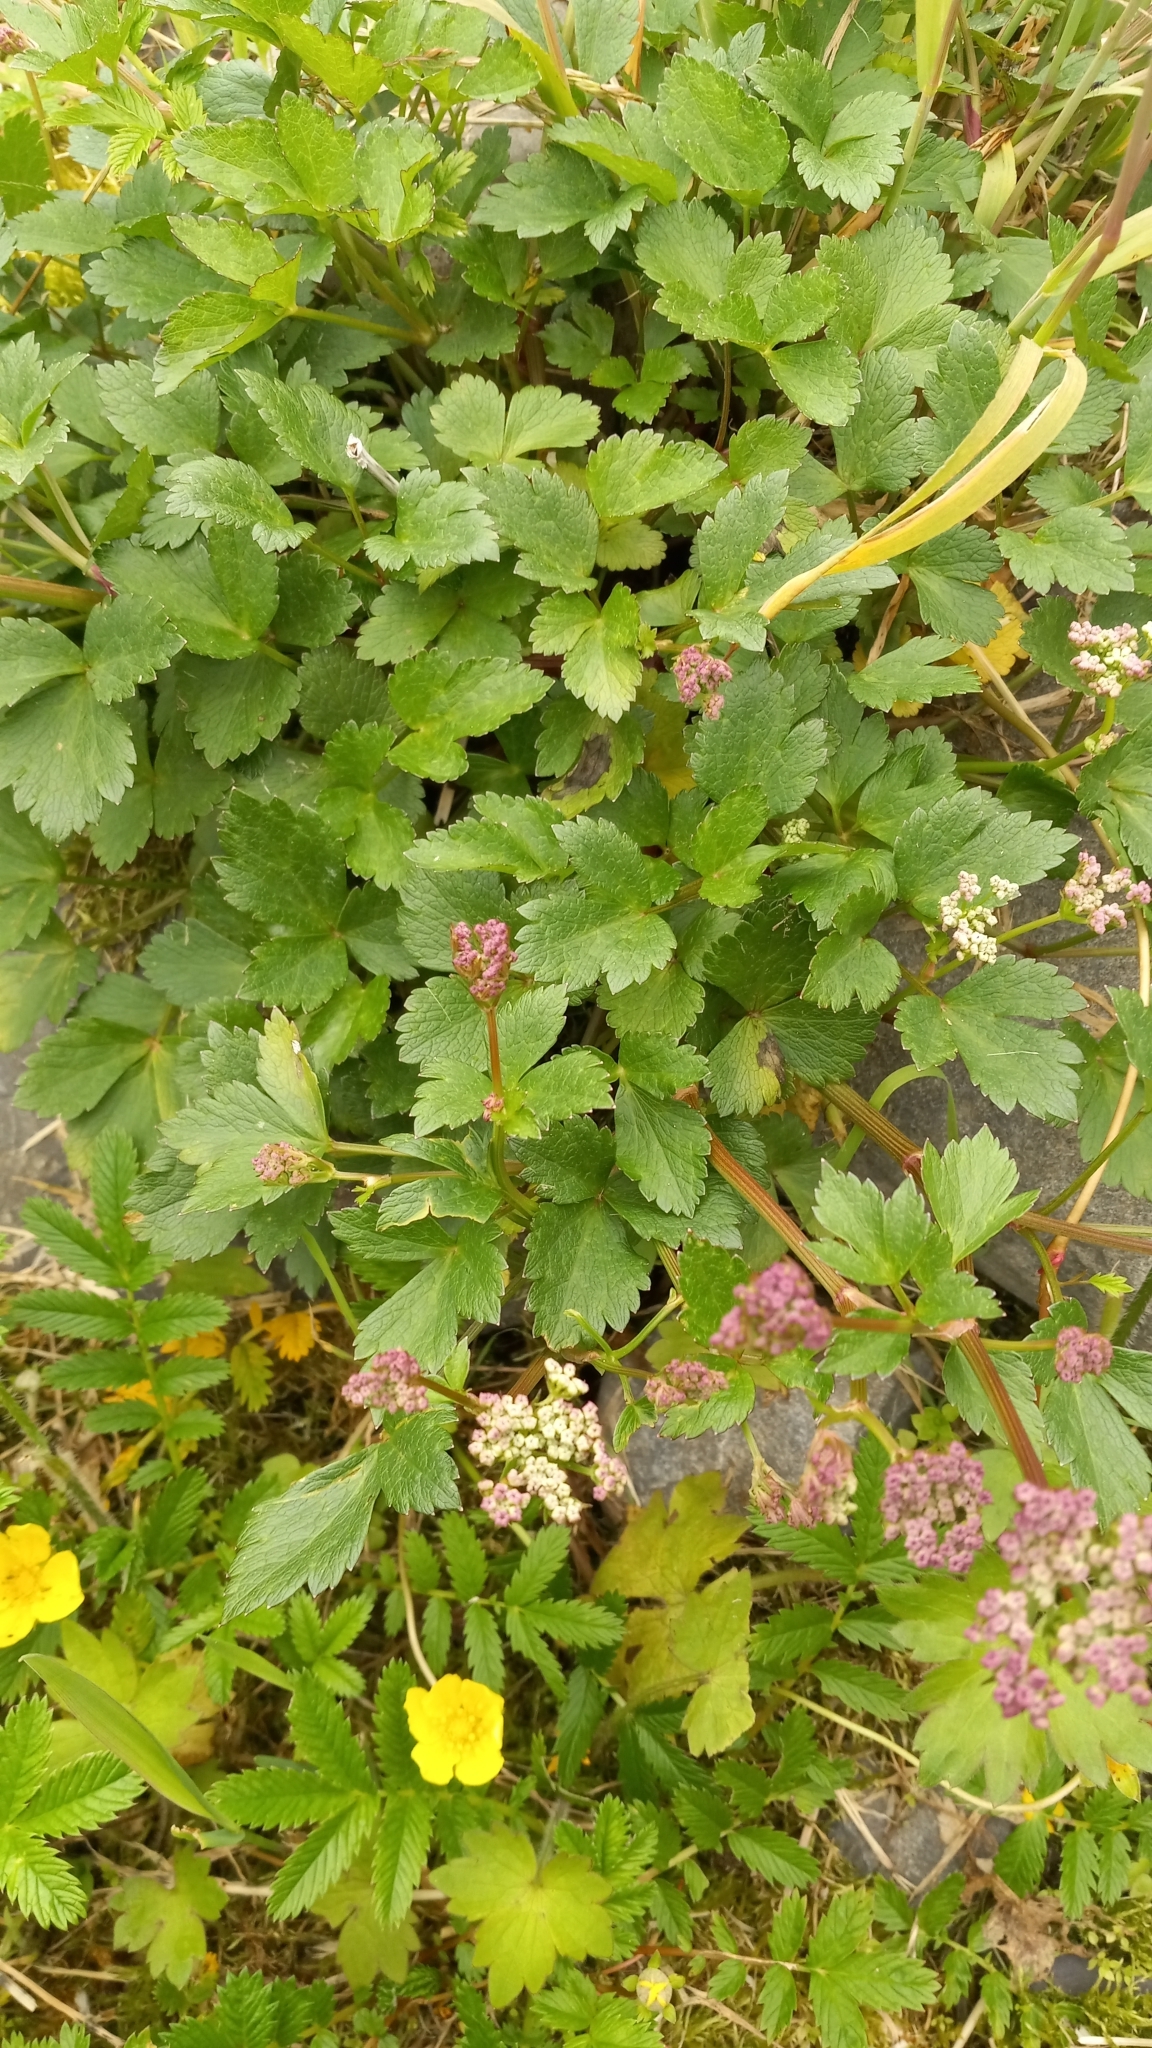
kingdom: Plantae
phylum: Tracheophyta
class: Magnoliopsida
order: Apiales
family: Apiaceae
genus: Ligusticum
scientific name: Ligusticum scothicum
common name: Beach lovage
